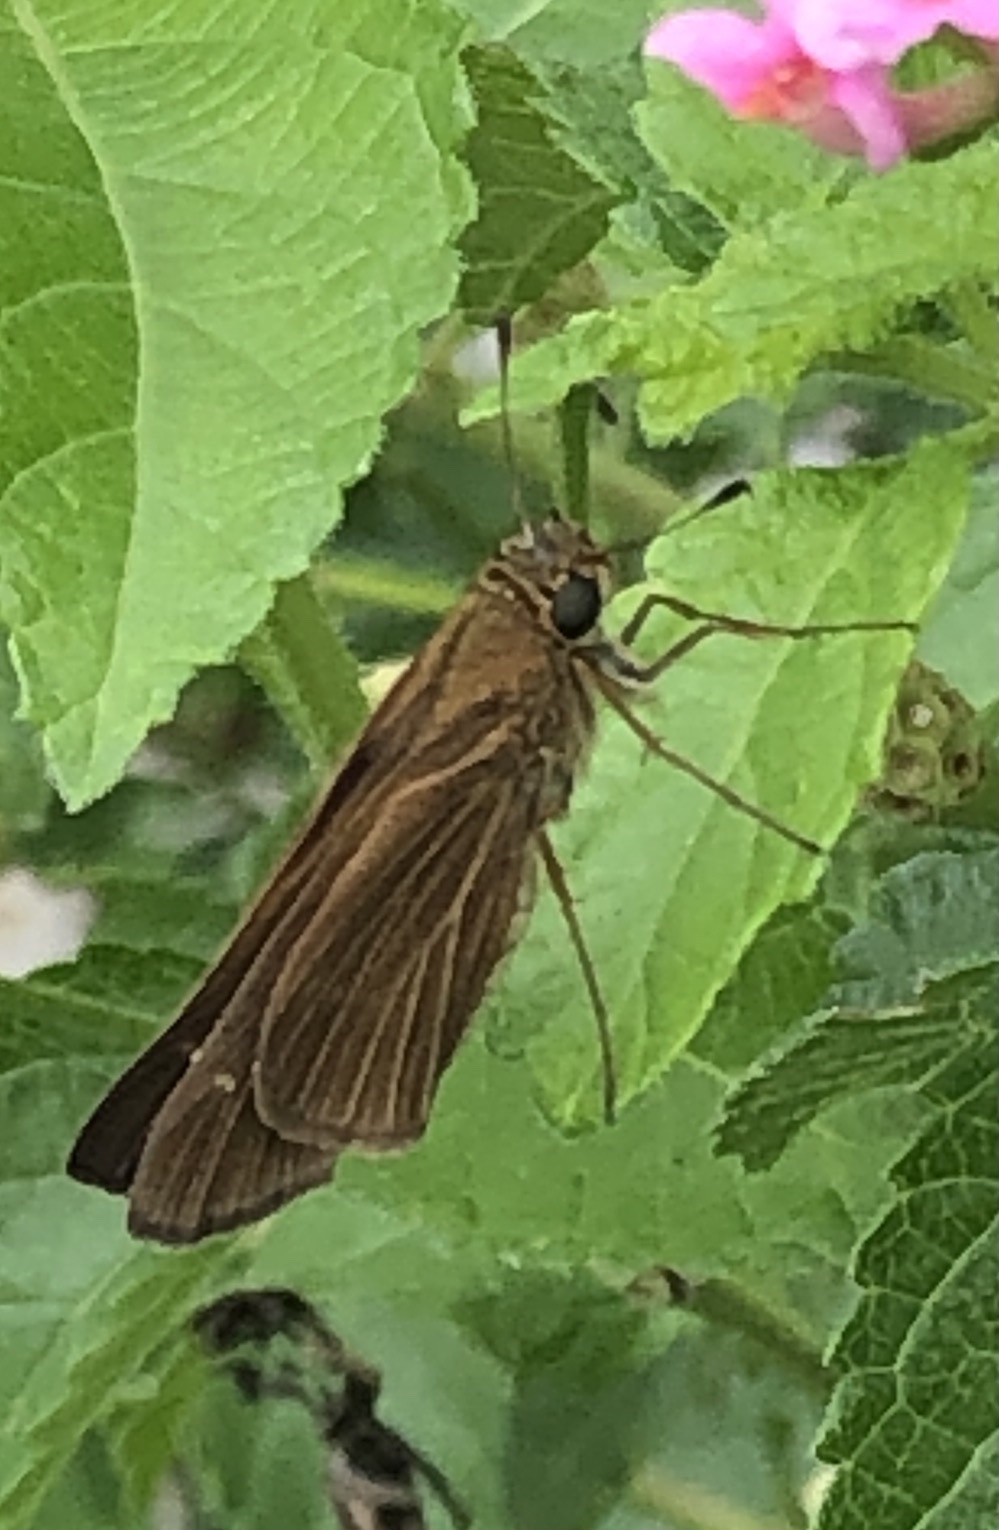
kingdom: Animalia
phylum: Arthropoda
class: Insecta
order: Lepidoptera
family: Hesperiidae
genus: Panoquina
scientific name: Panoquina ocola
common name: Ocola skipper
